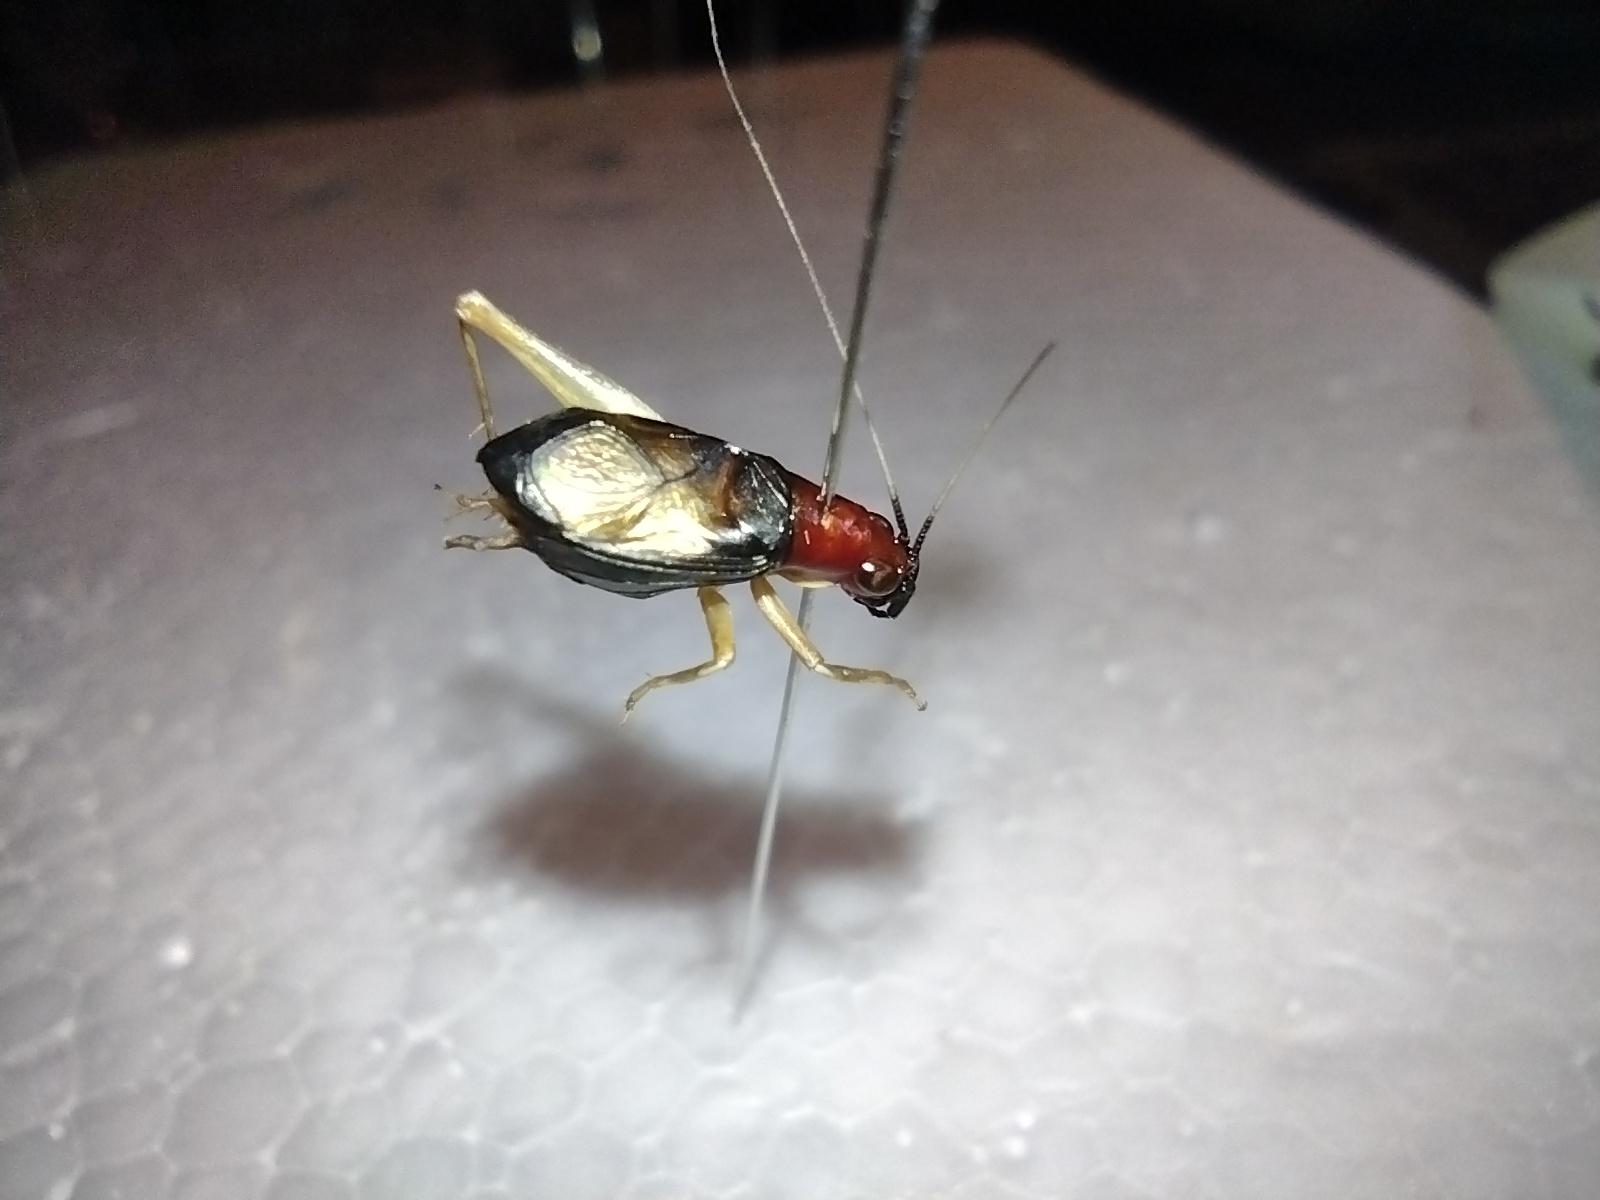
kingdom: Animalia
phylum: Arthropoda
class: Insecta
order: Orthoptera
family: Trigonidiidae
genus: Phyllopalpus
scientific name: Phyllopalpus pulchellus
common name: Handsome trig
